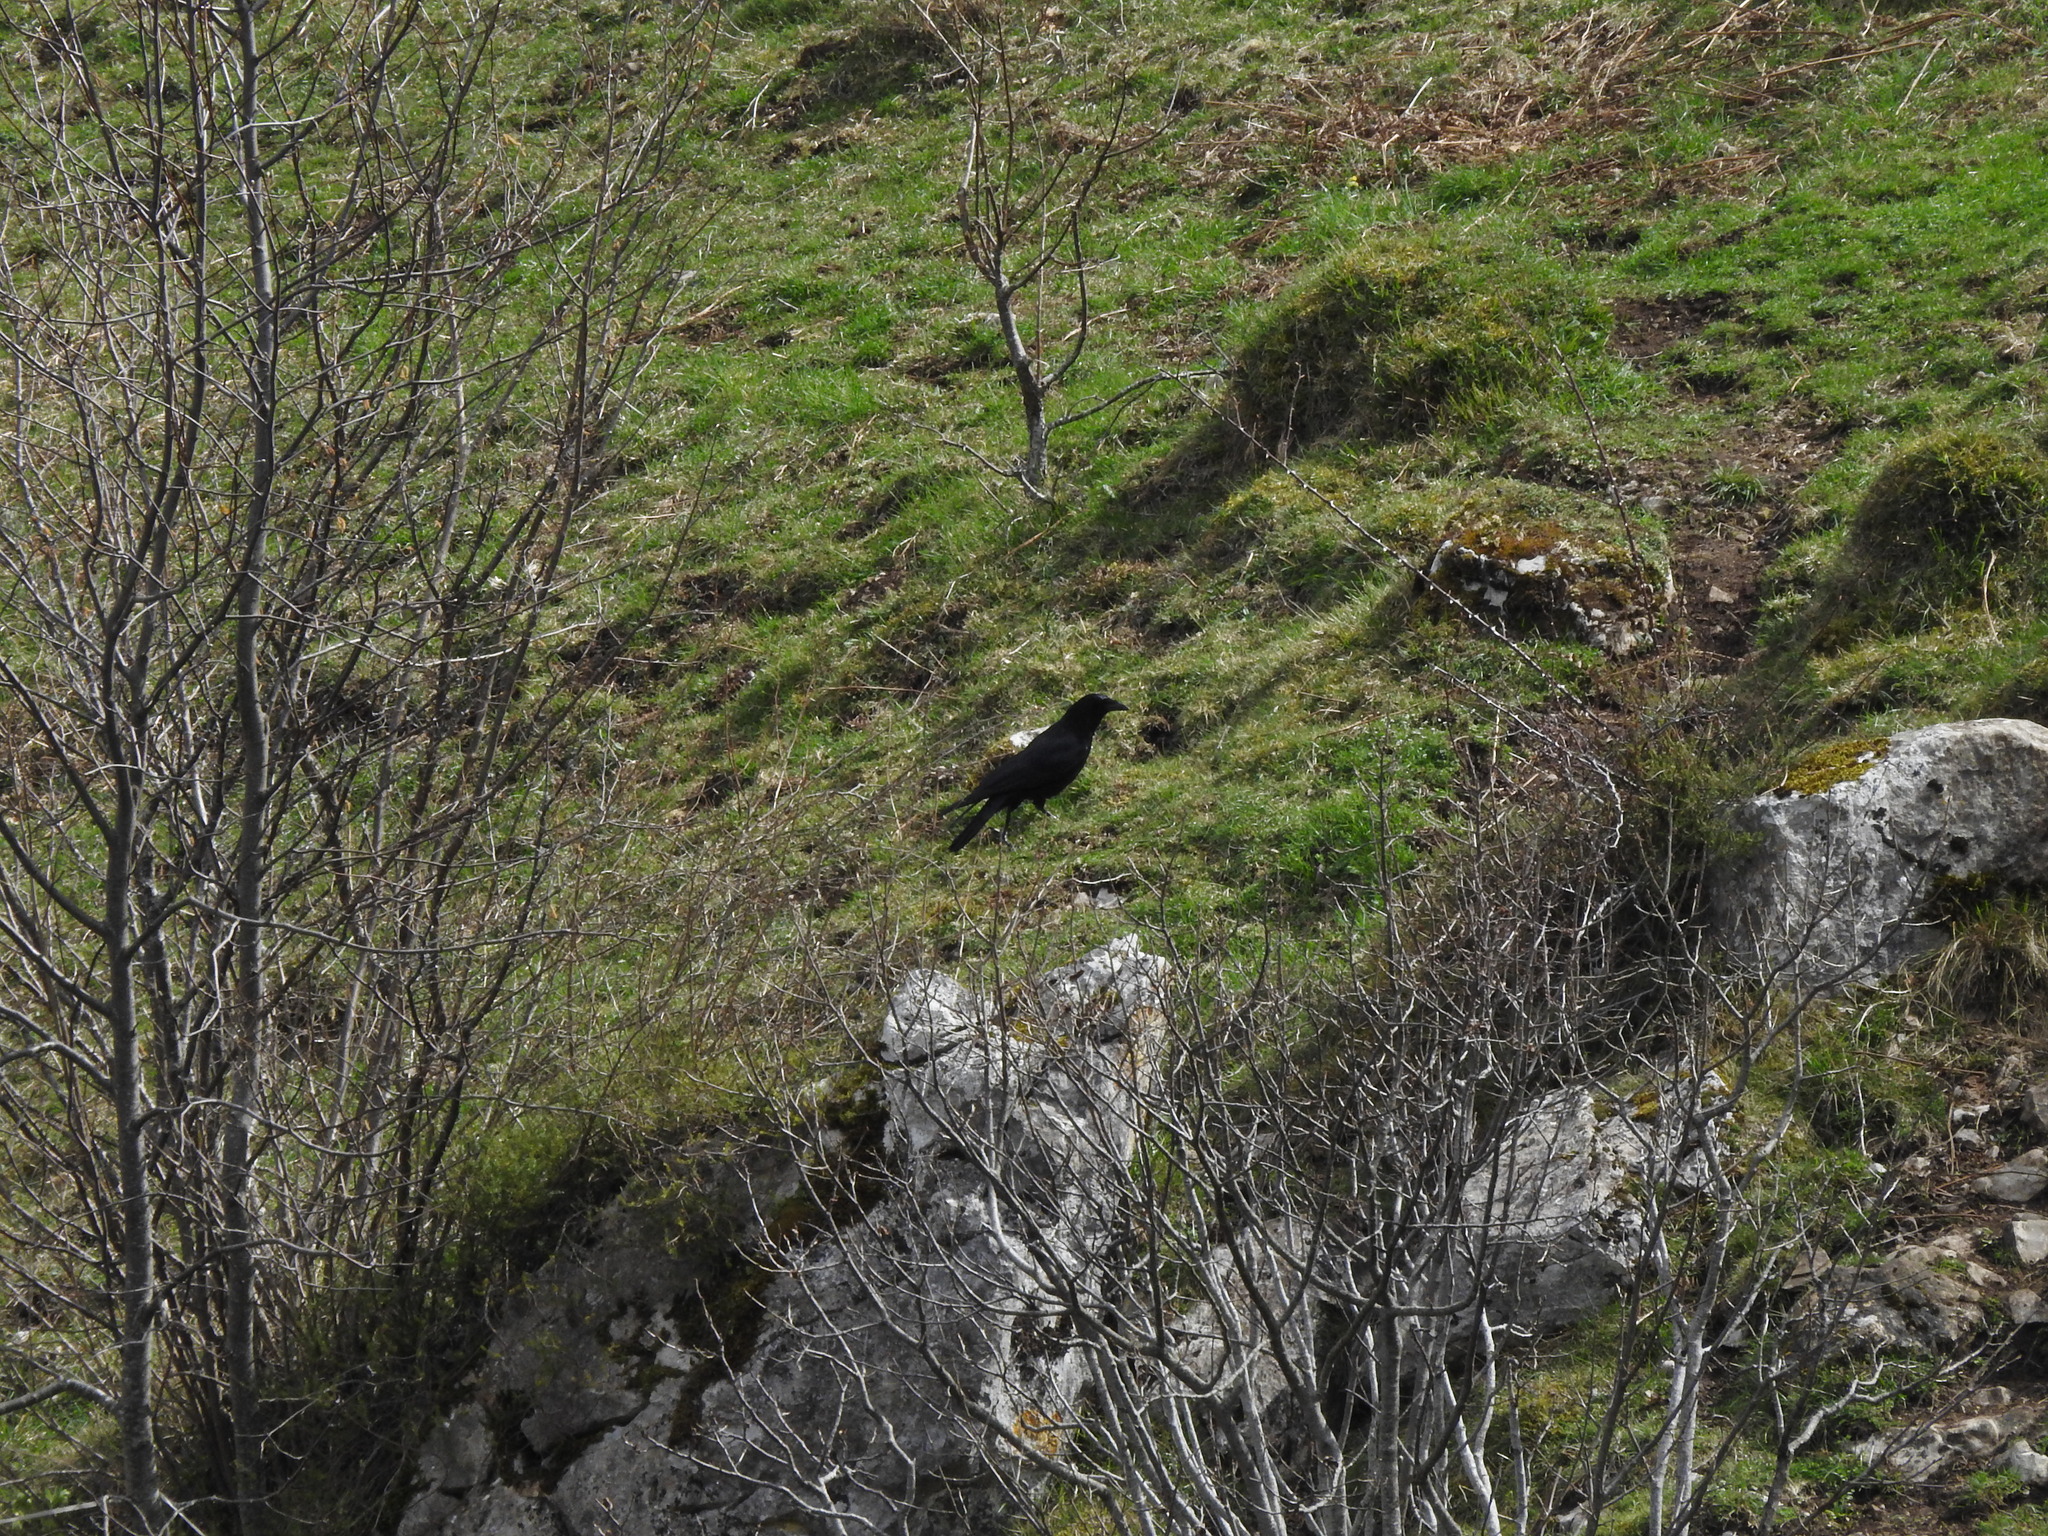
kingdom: Animalia
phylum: Chordata
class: Aves
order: Passeriformes
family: Corvidae
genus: Corvus
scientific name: Corvus corone
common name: Carrion crow
